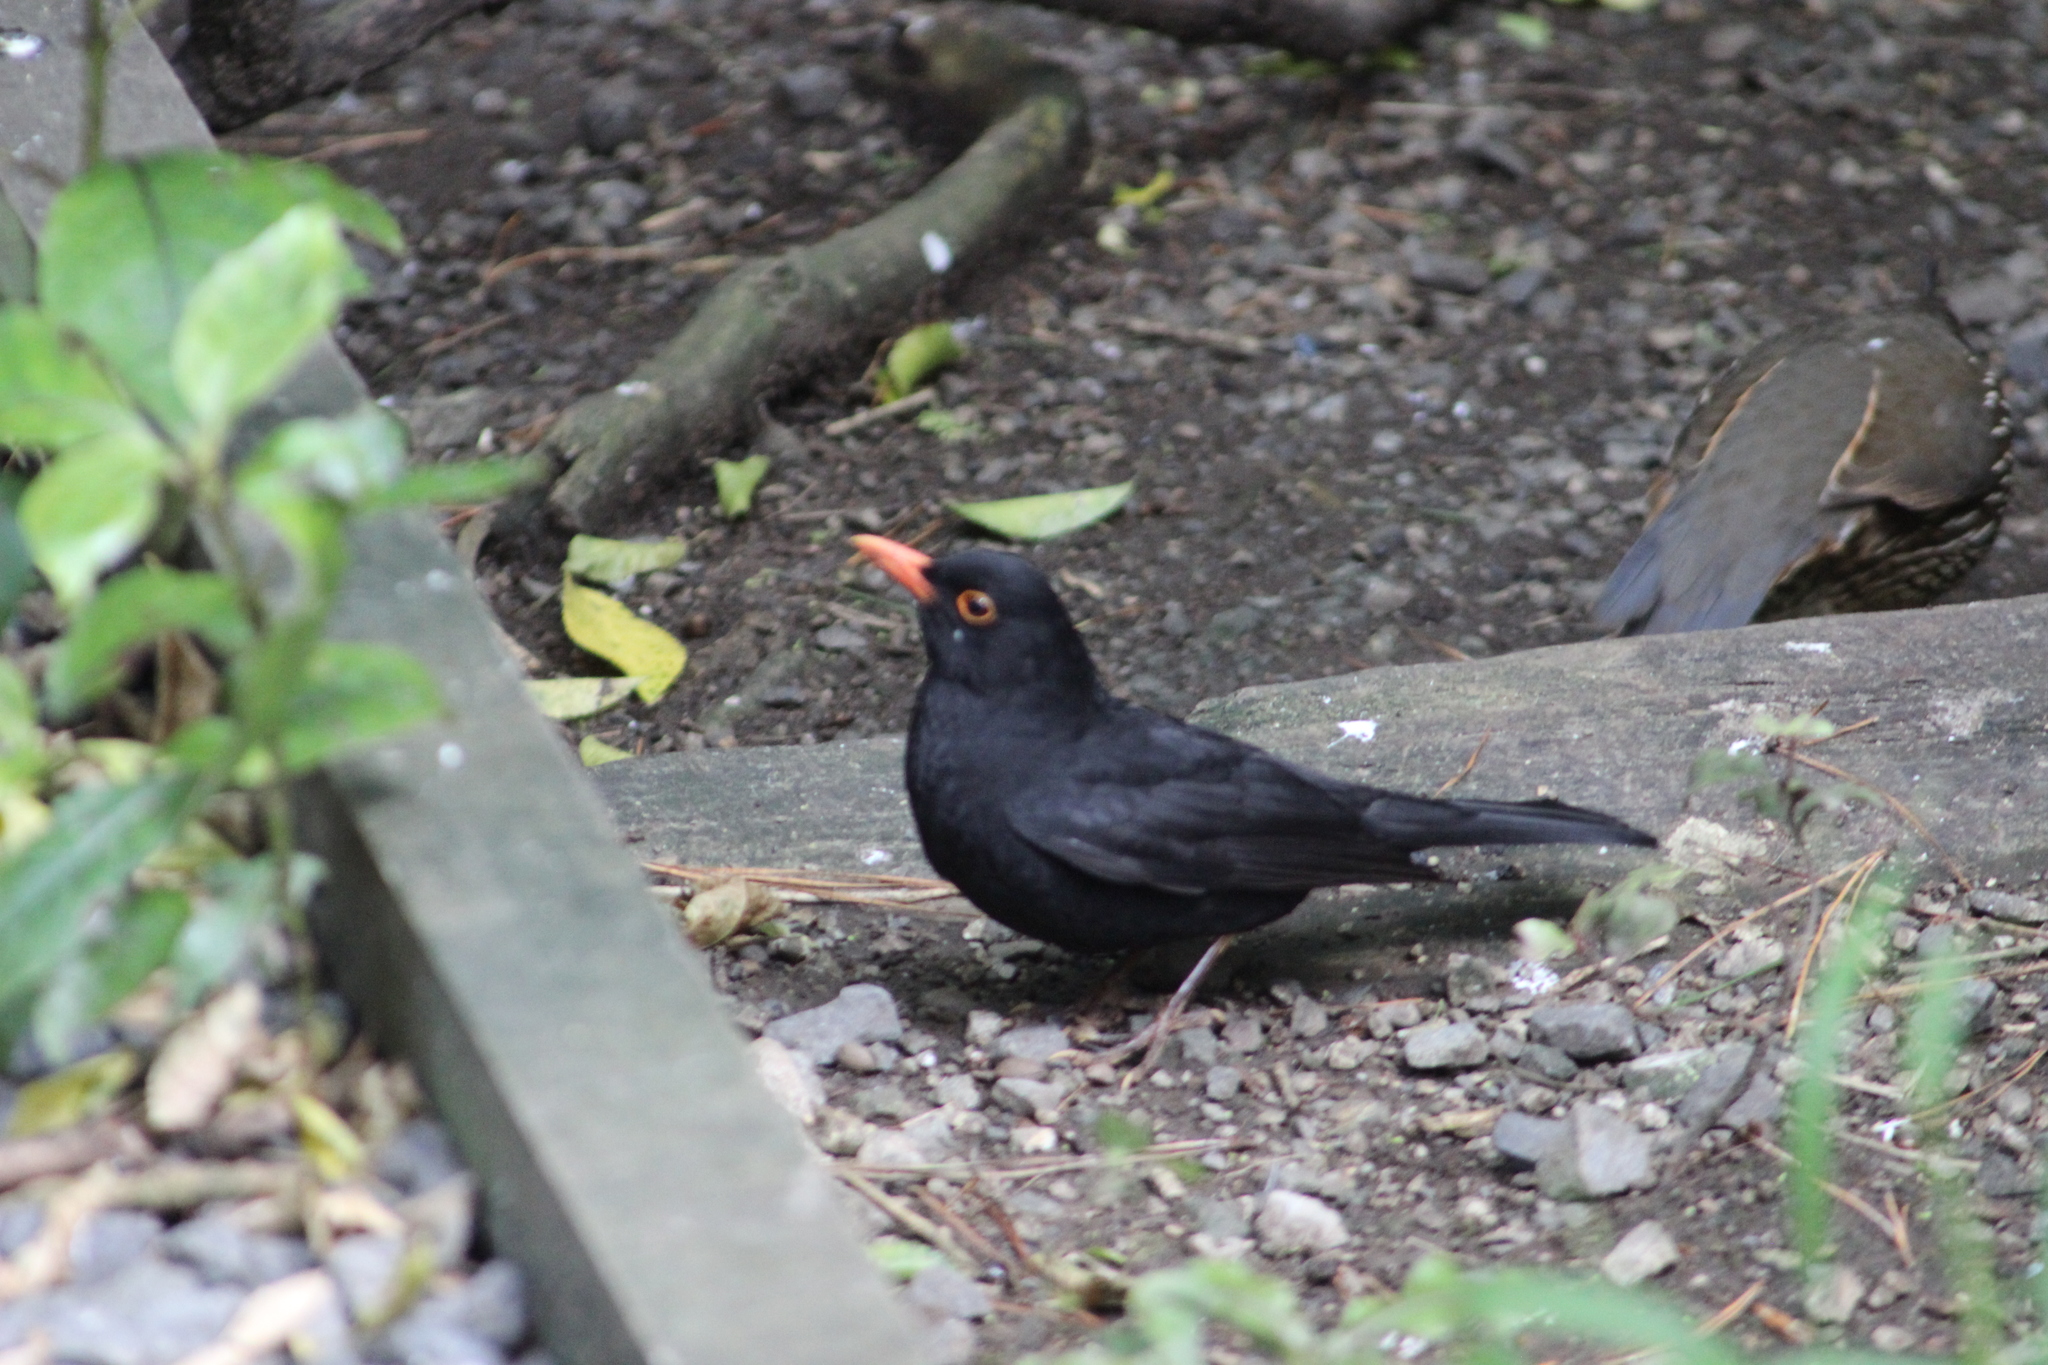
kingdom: Animalia
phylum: Chordata
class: Aves
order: Passeriformes
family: Turdidae
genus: Turdus
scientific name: Turdus merula
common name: Common blackbird
